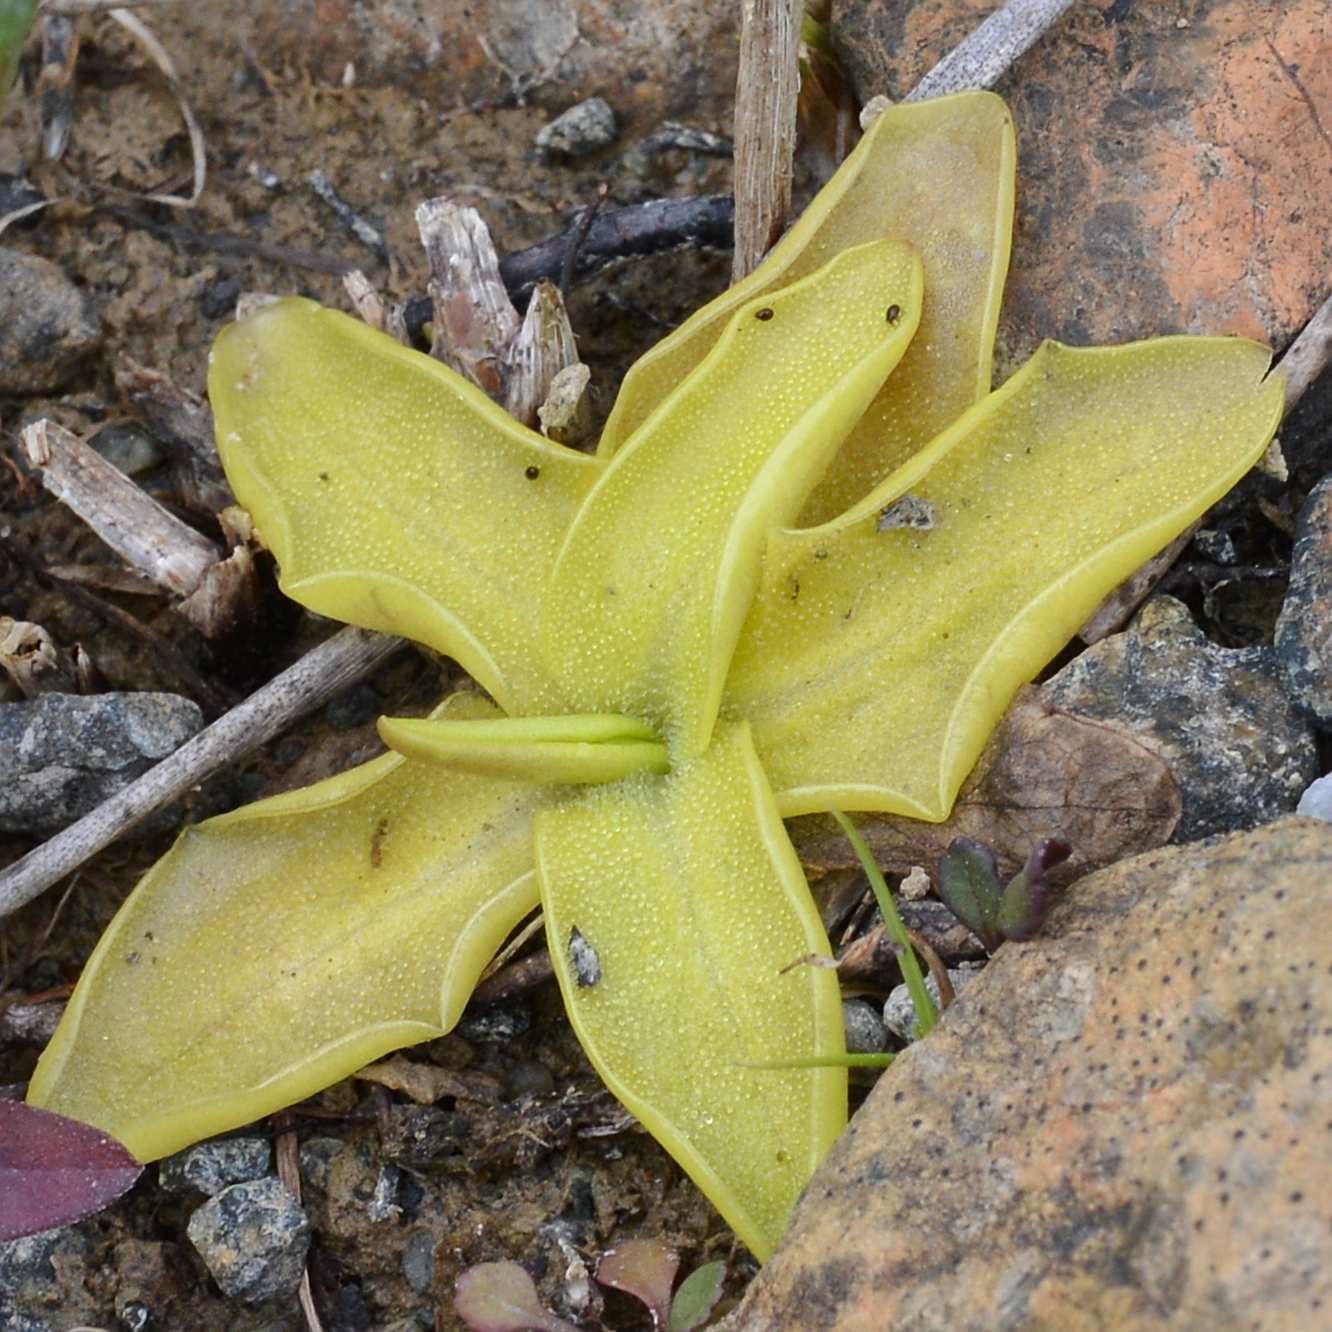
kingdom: Plantae
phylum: Tracheophyta
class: Magnoliopsida
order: Lamiales
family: Lentibulariaceae
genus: Pinguicula
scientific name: Pinguicula vulgaris
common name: Common butterwort
